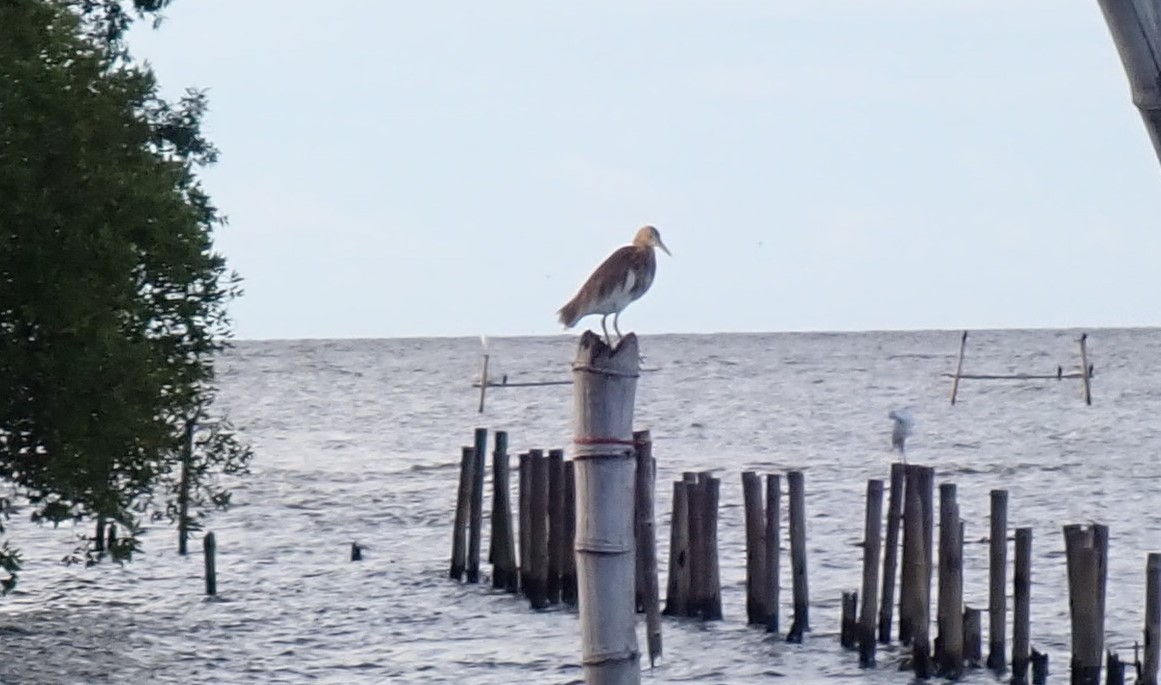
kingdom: Animalia
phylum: Chordata
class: Aves
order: Pelecaniformes
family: Ardeidae
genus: Ardeola
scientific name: Ardeola
